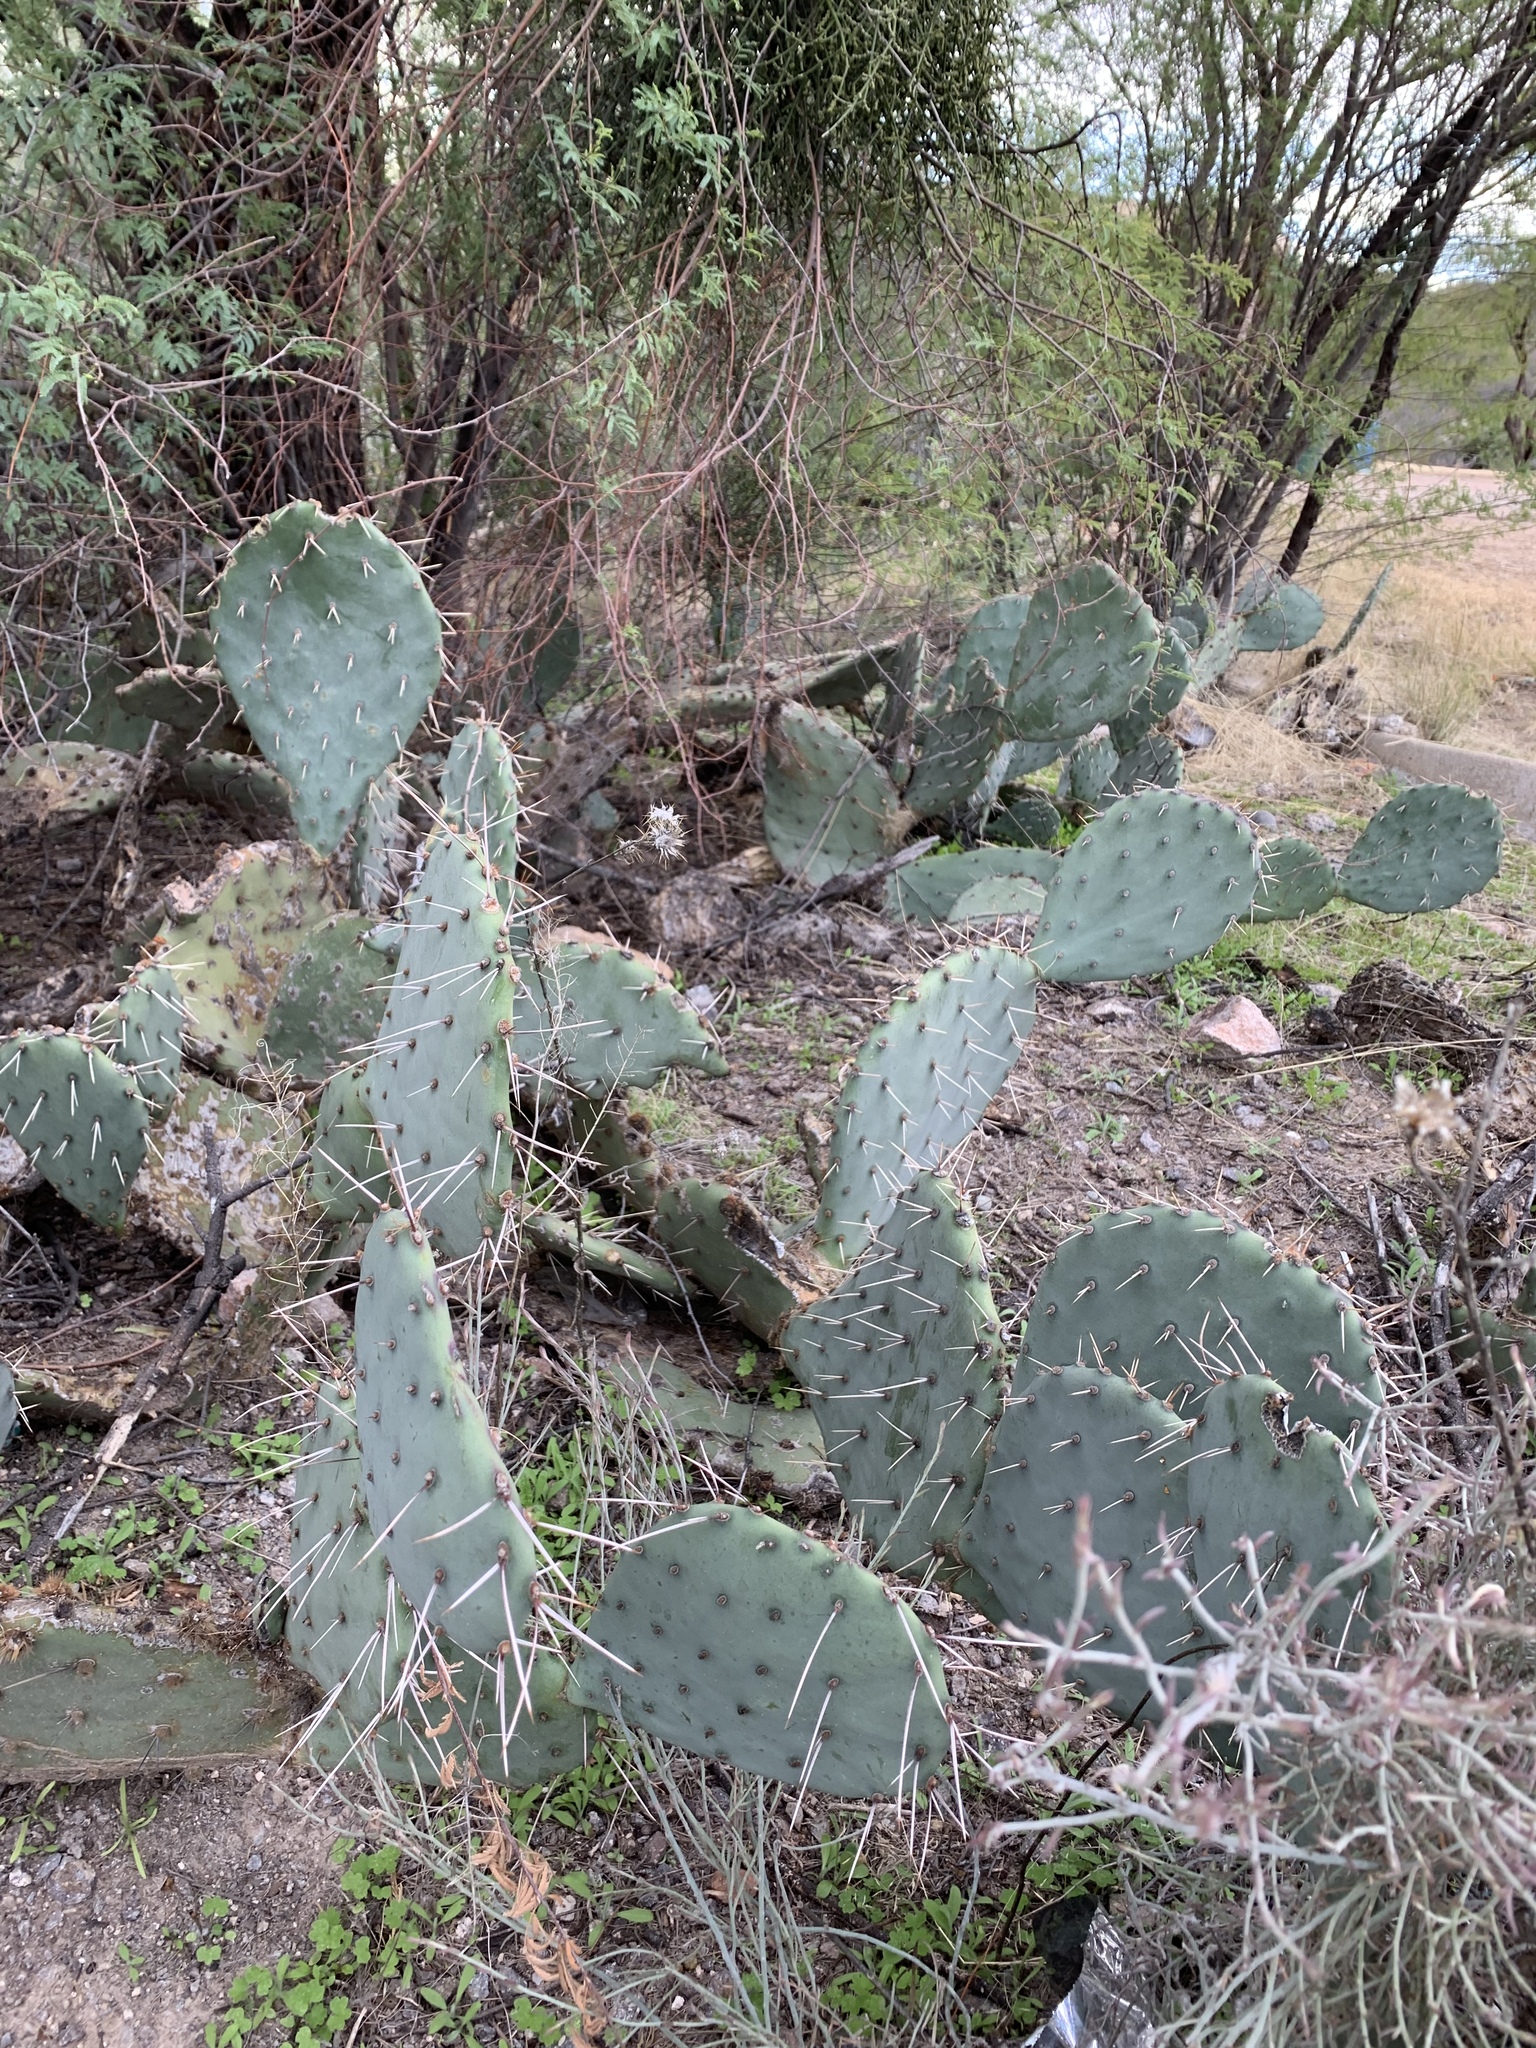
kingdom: Plantae
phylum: Tracheophyta
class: Magnoliopsida
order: Caryophyllales
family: Cactaceae
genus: Opuntia
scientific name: Opuntia engelmannii
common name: Cactus-apple
